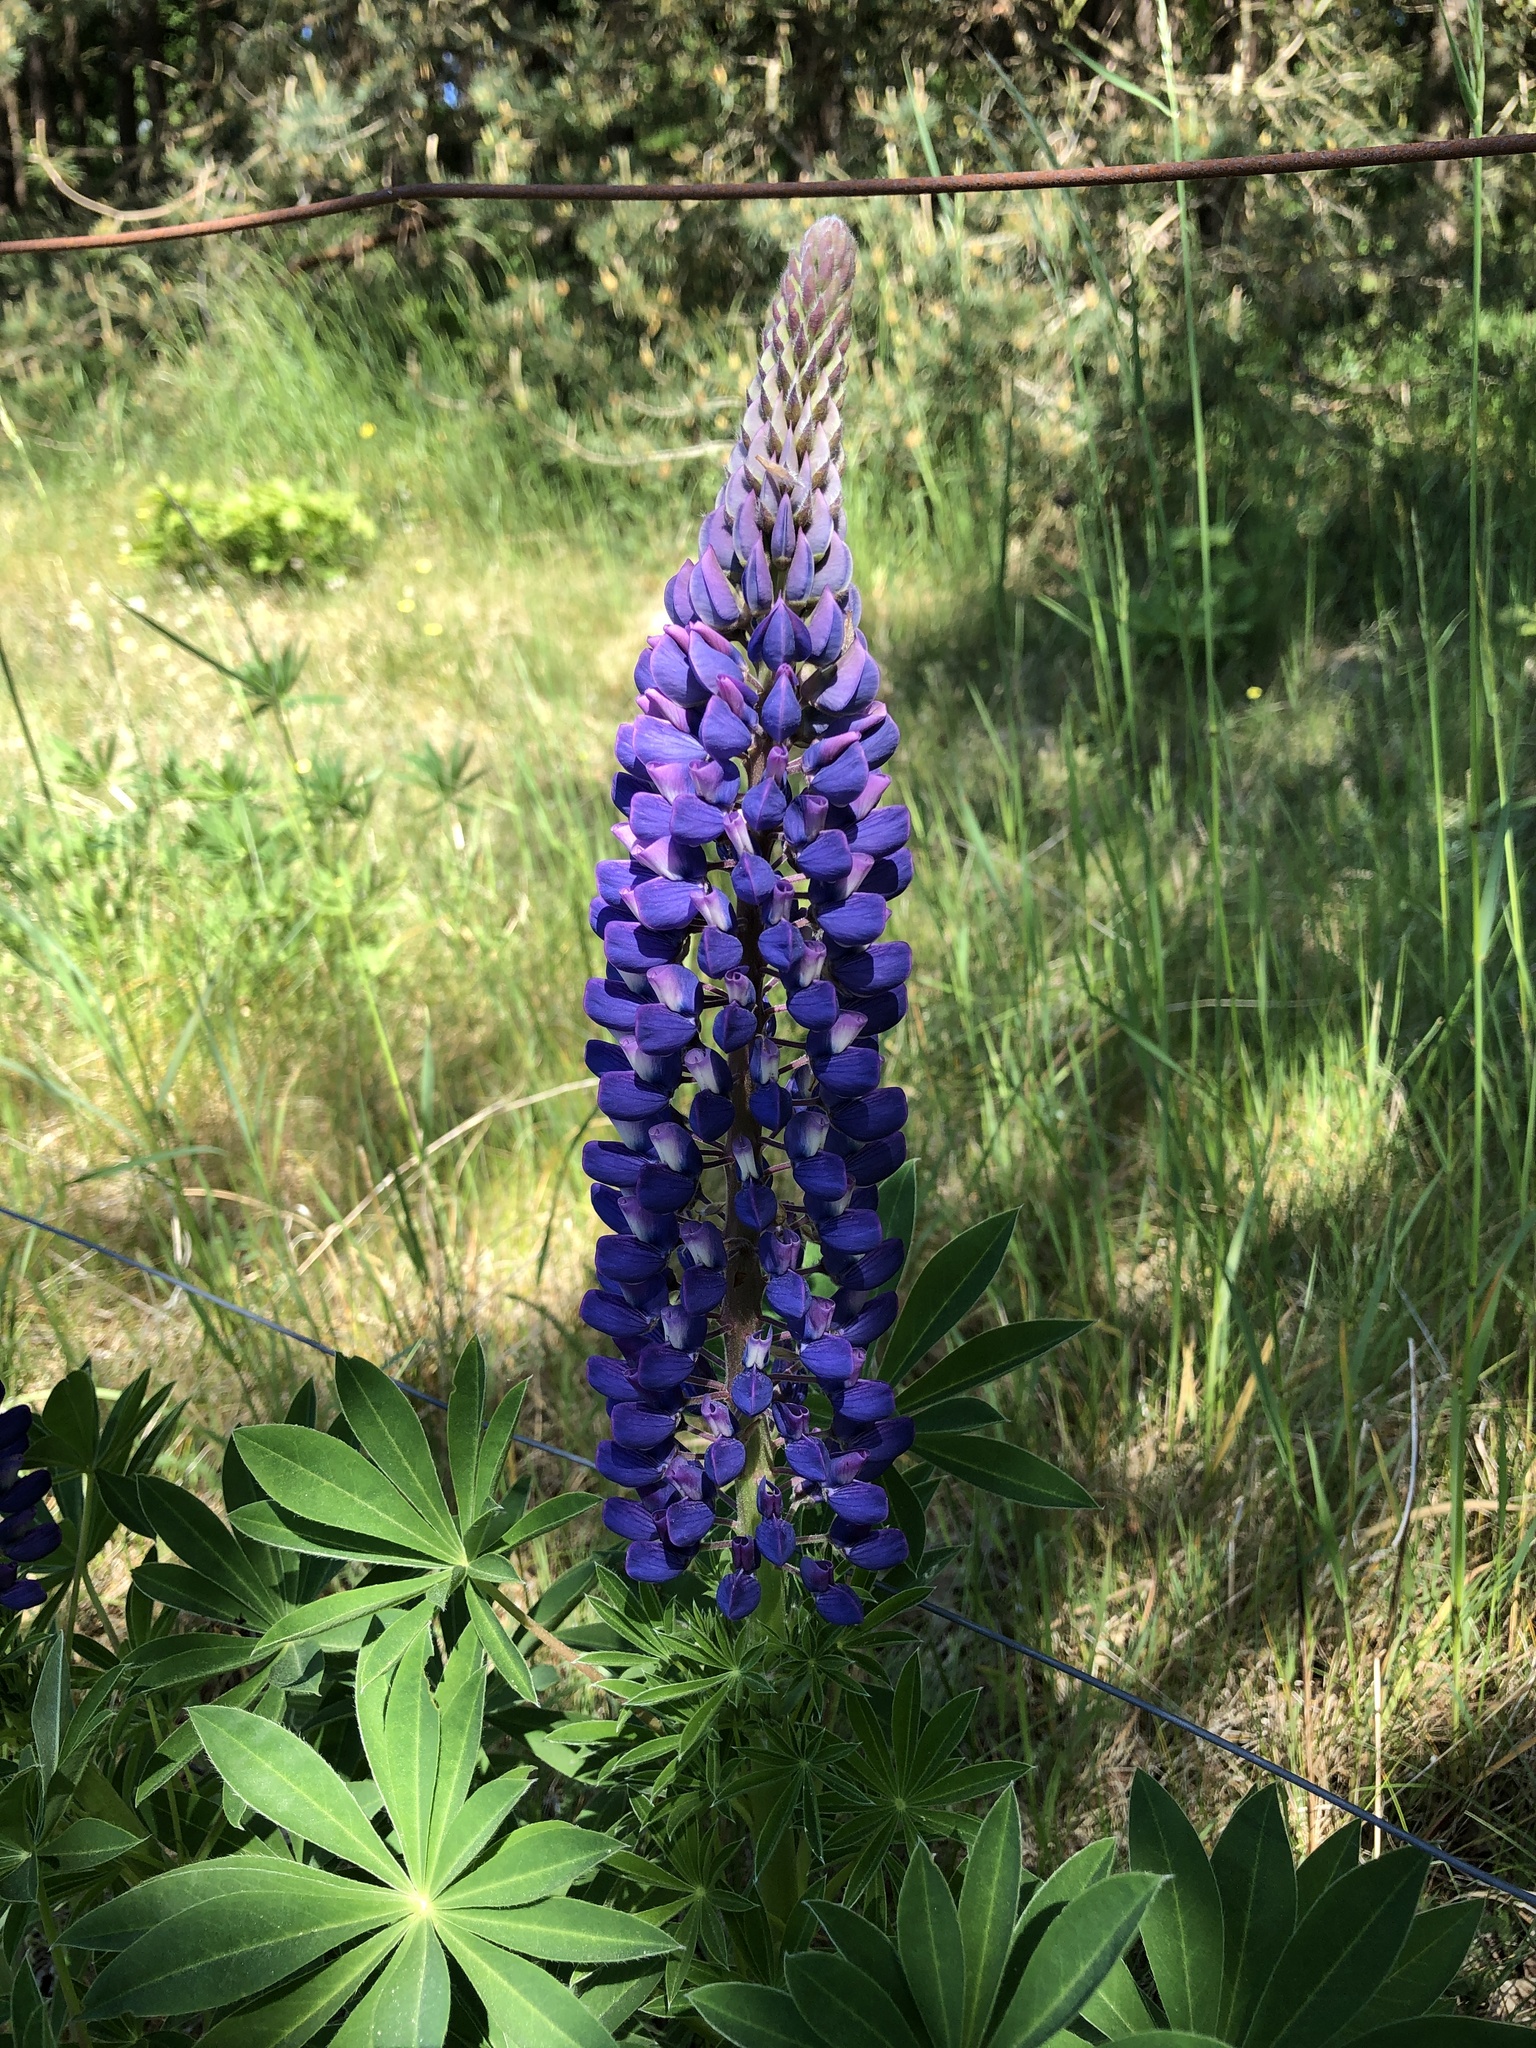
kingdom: Plantae
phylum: Tracheophyta
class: Magnoliopsida
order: Fabales
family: Fabaceae
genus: Lupinus
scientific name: Lupinus polyphyllus
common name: Garden lupin
